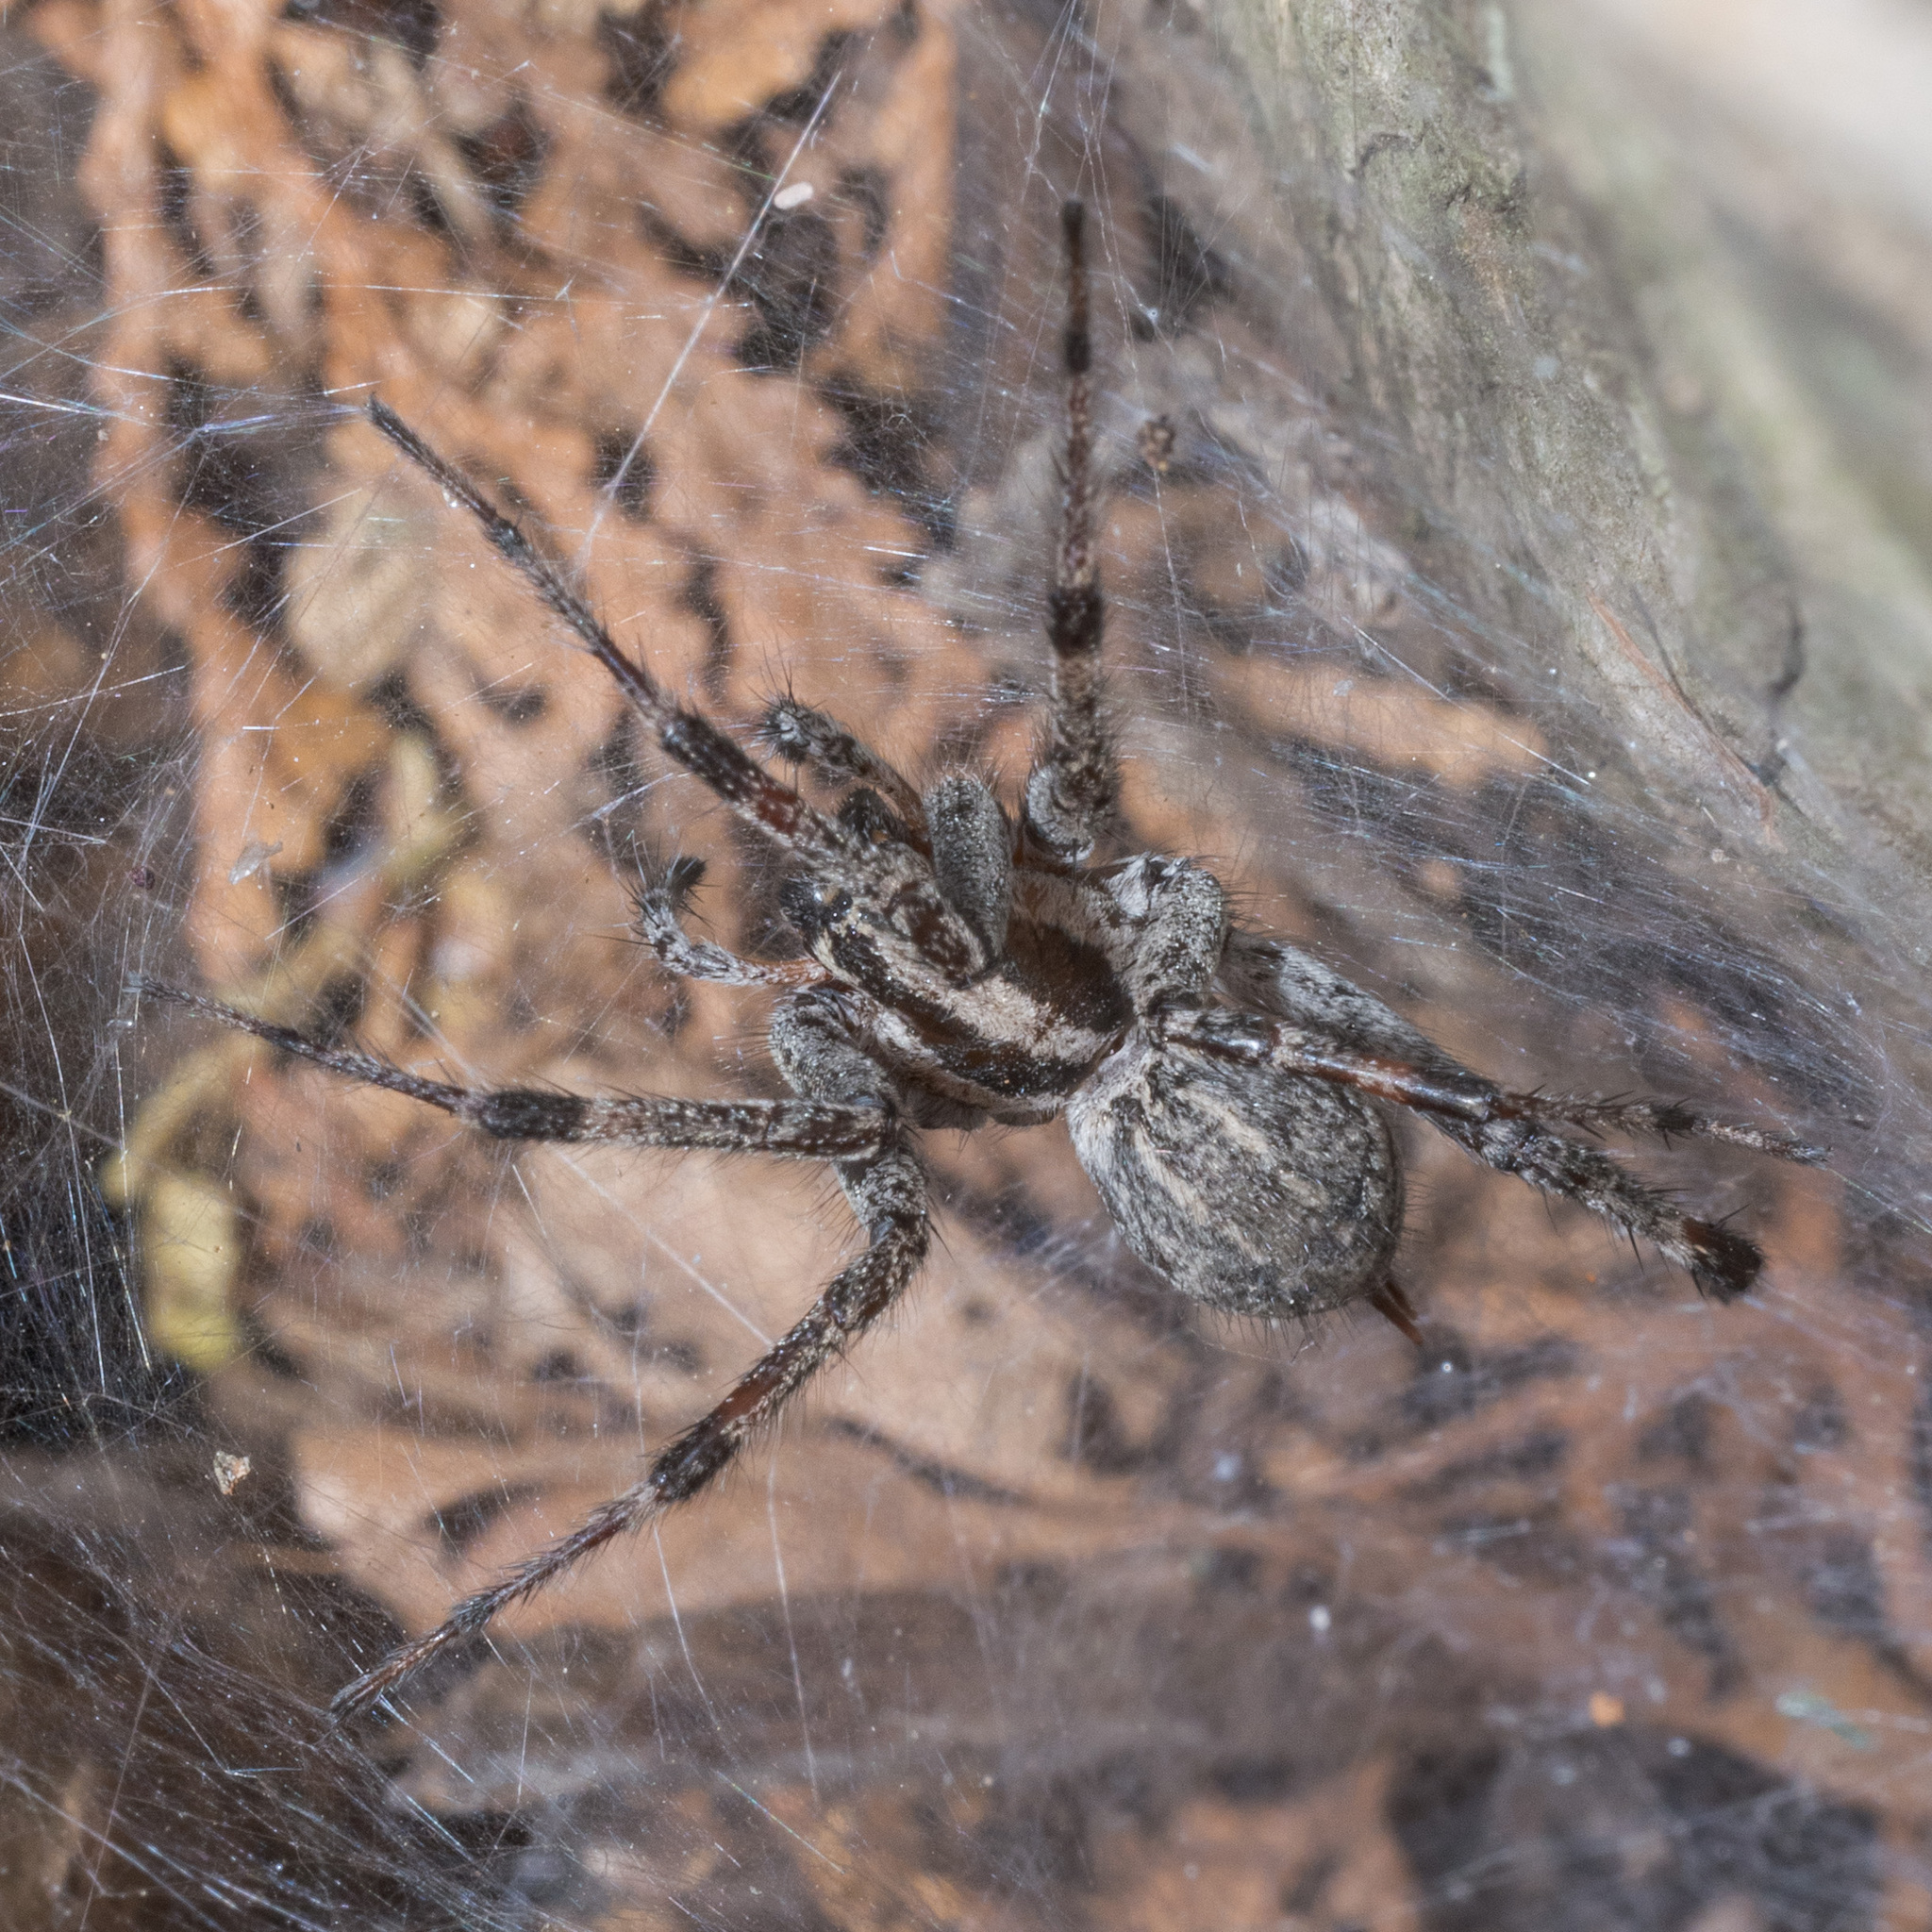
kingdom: Animalia
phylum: Arthropoda
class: Arachnida
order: Araneae
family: Agelenidae
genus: Agelenopsis
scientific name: Agelenopsis
